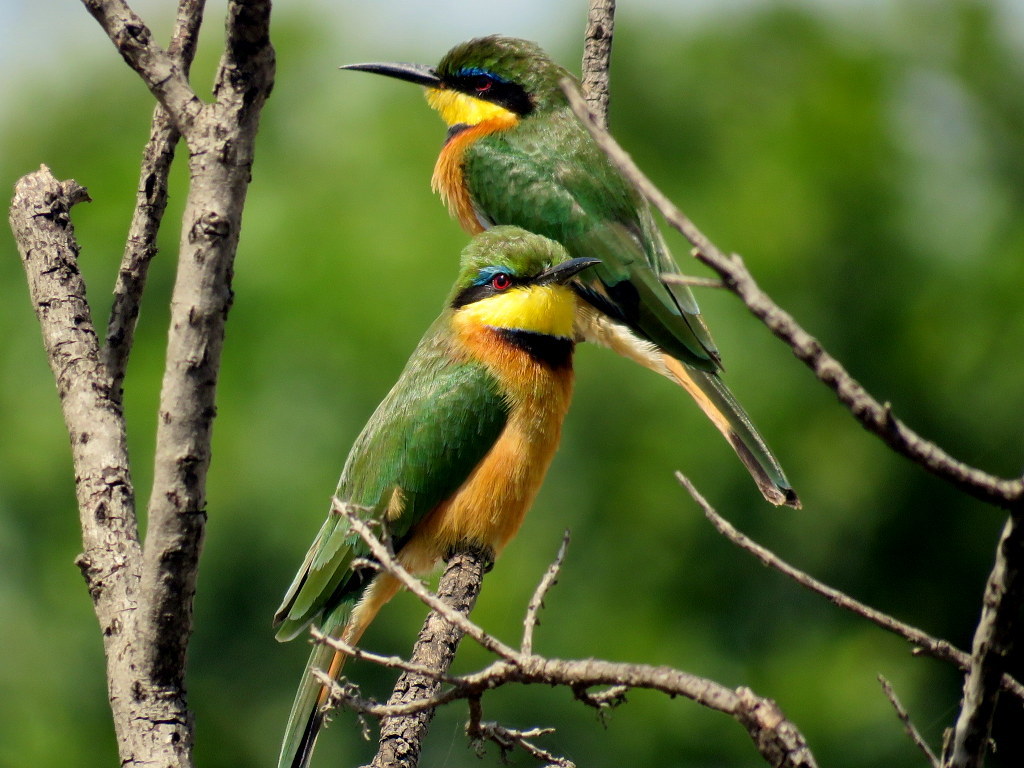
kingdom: Animalia
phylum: Chordata
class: Aves
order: Coraciiformes
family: Meropidae
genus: Merops
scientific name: Merops pusillus
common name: Little bee-eater
